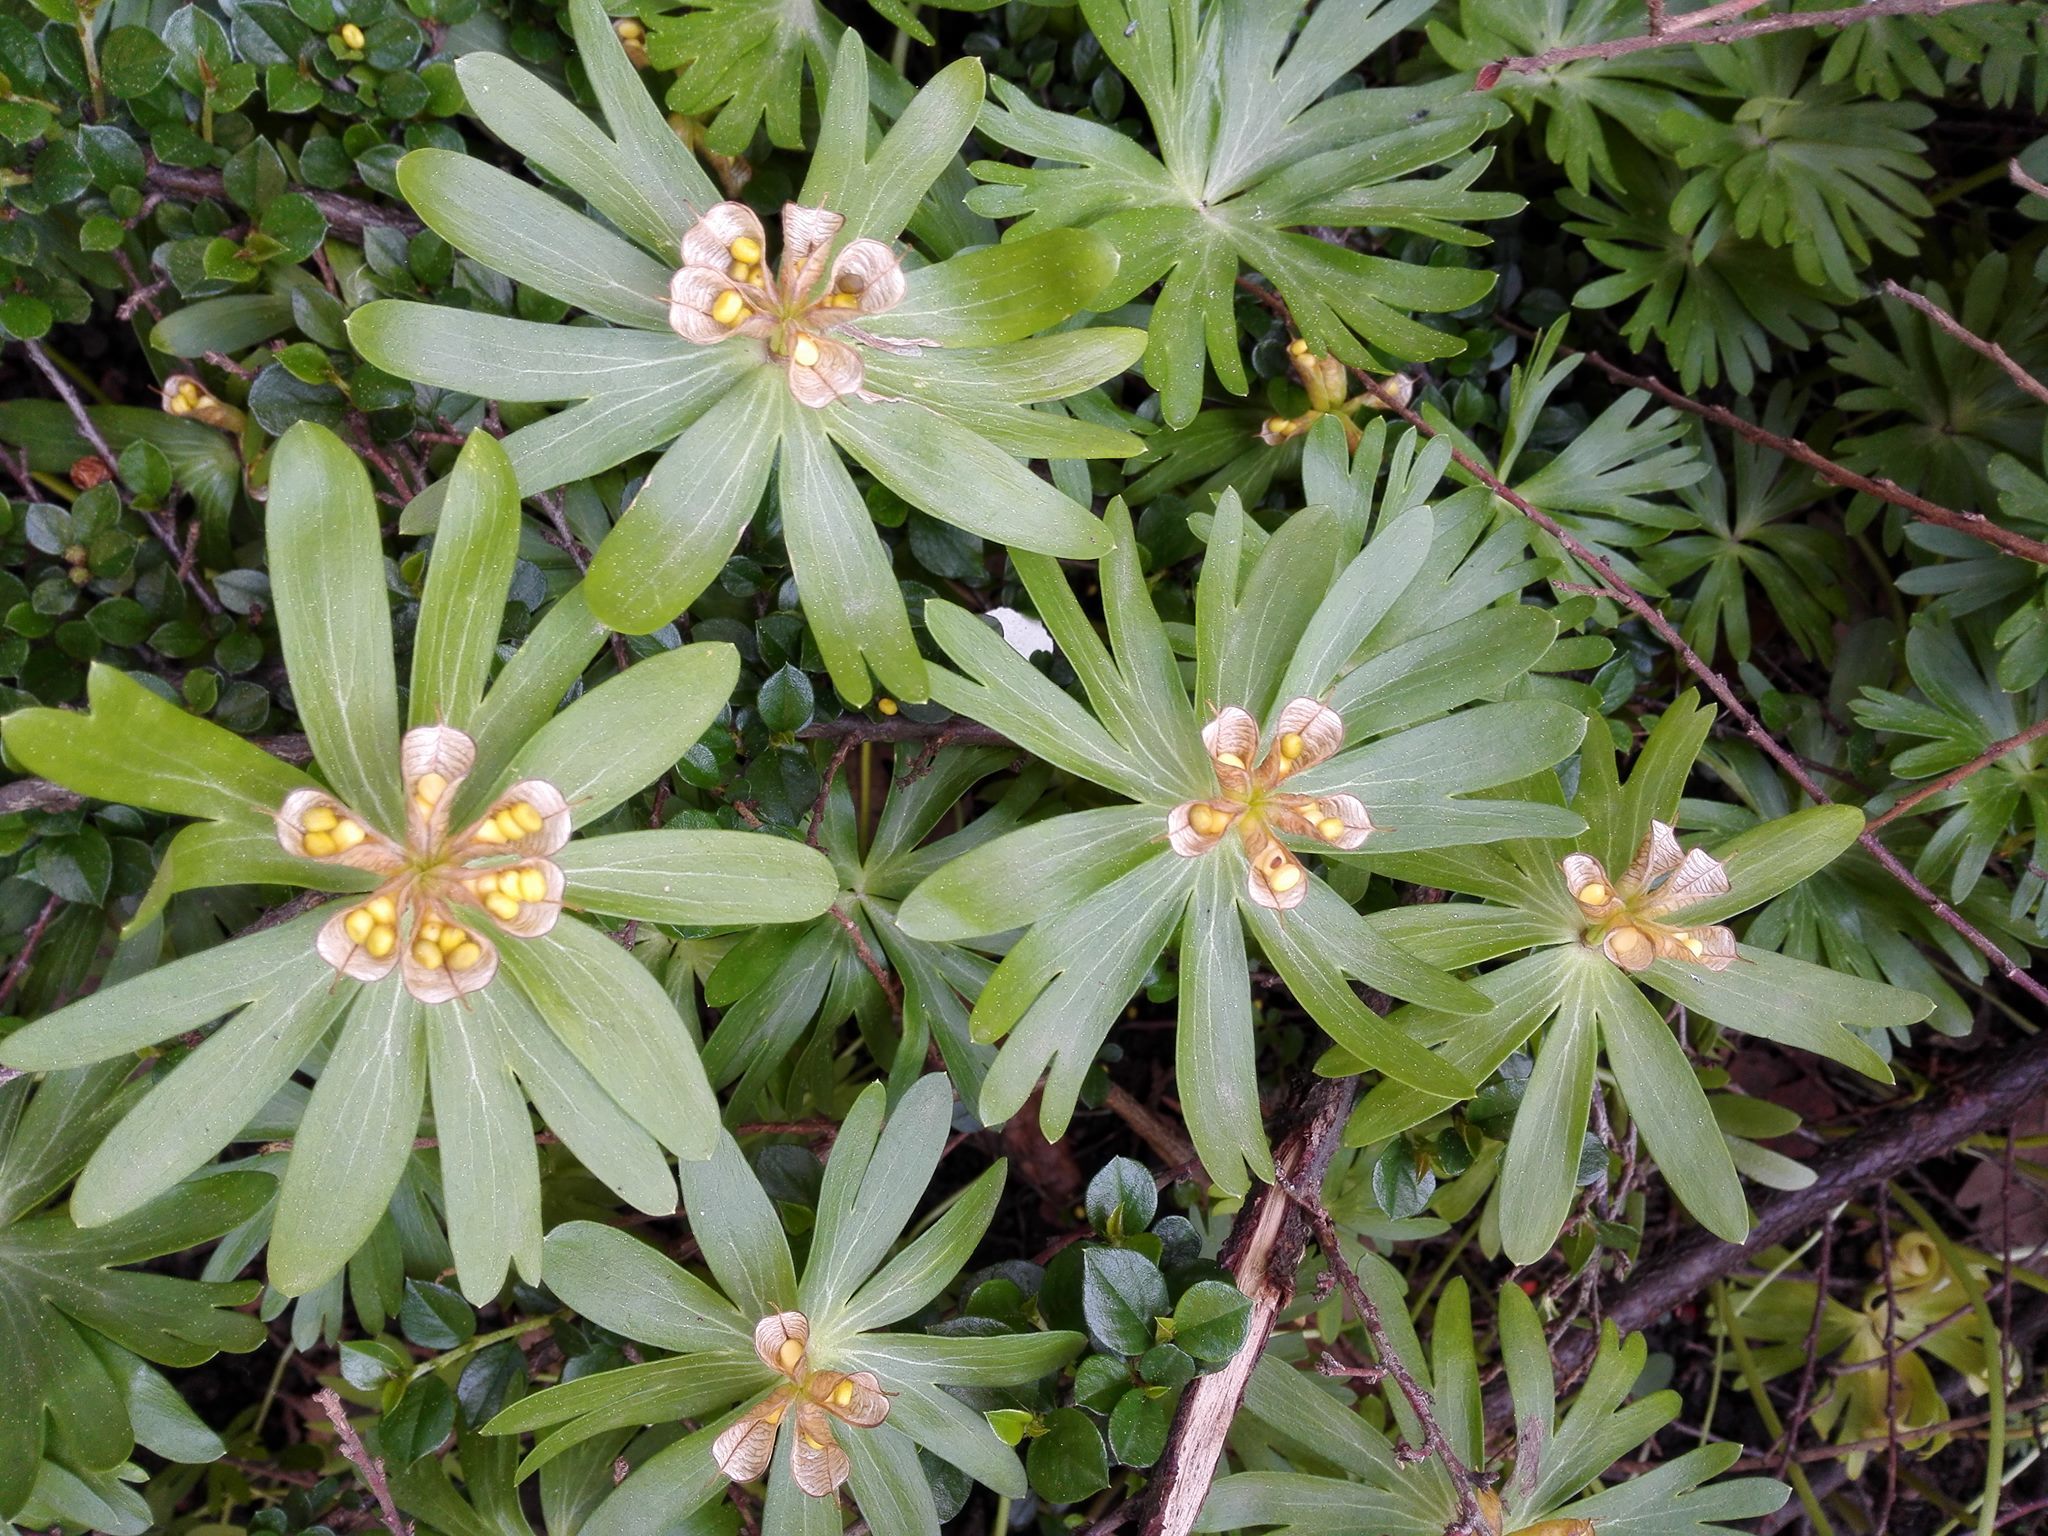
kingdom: Plantae
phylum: Tracheophyta
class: Magnoliopsida
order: Ranunculales
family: Ranunculaceae
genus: Eranthis
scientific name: Eranthis hyemalis
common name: Winter aconite
